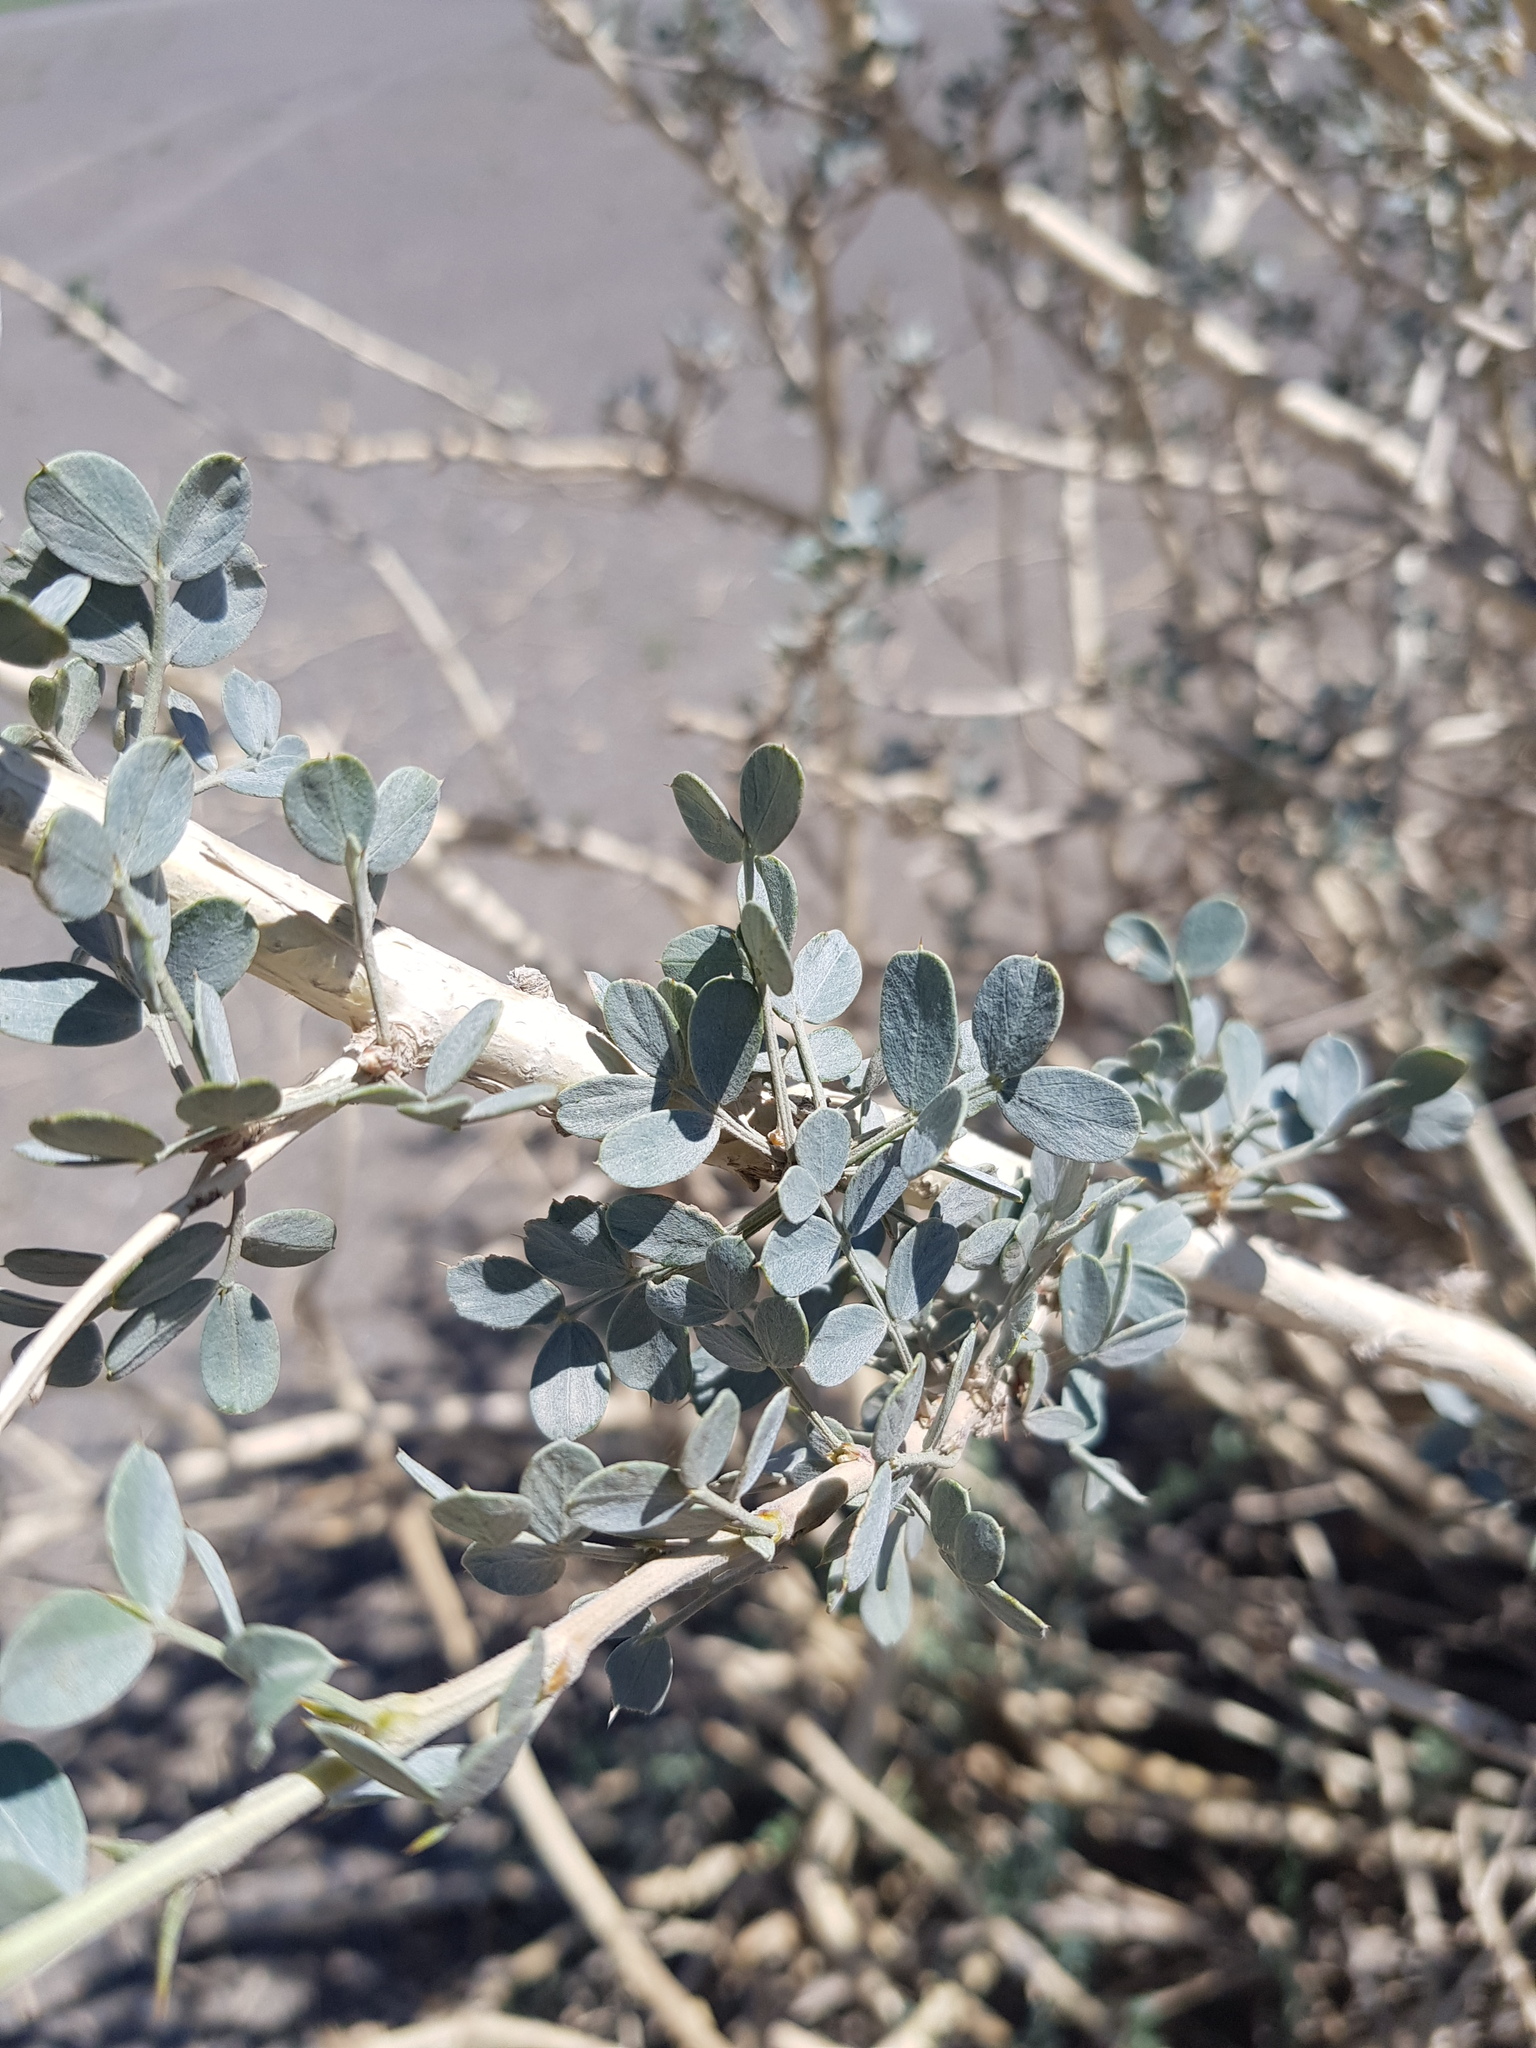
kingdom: Plantae
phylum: Tracheophyta
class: Magnoliopsida
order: Fabales
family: Fabaceae
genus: Caragana
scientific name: Caragana bungei
